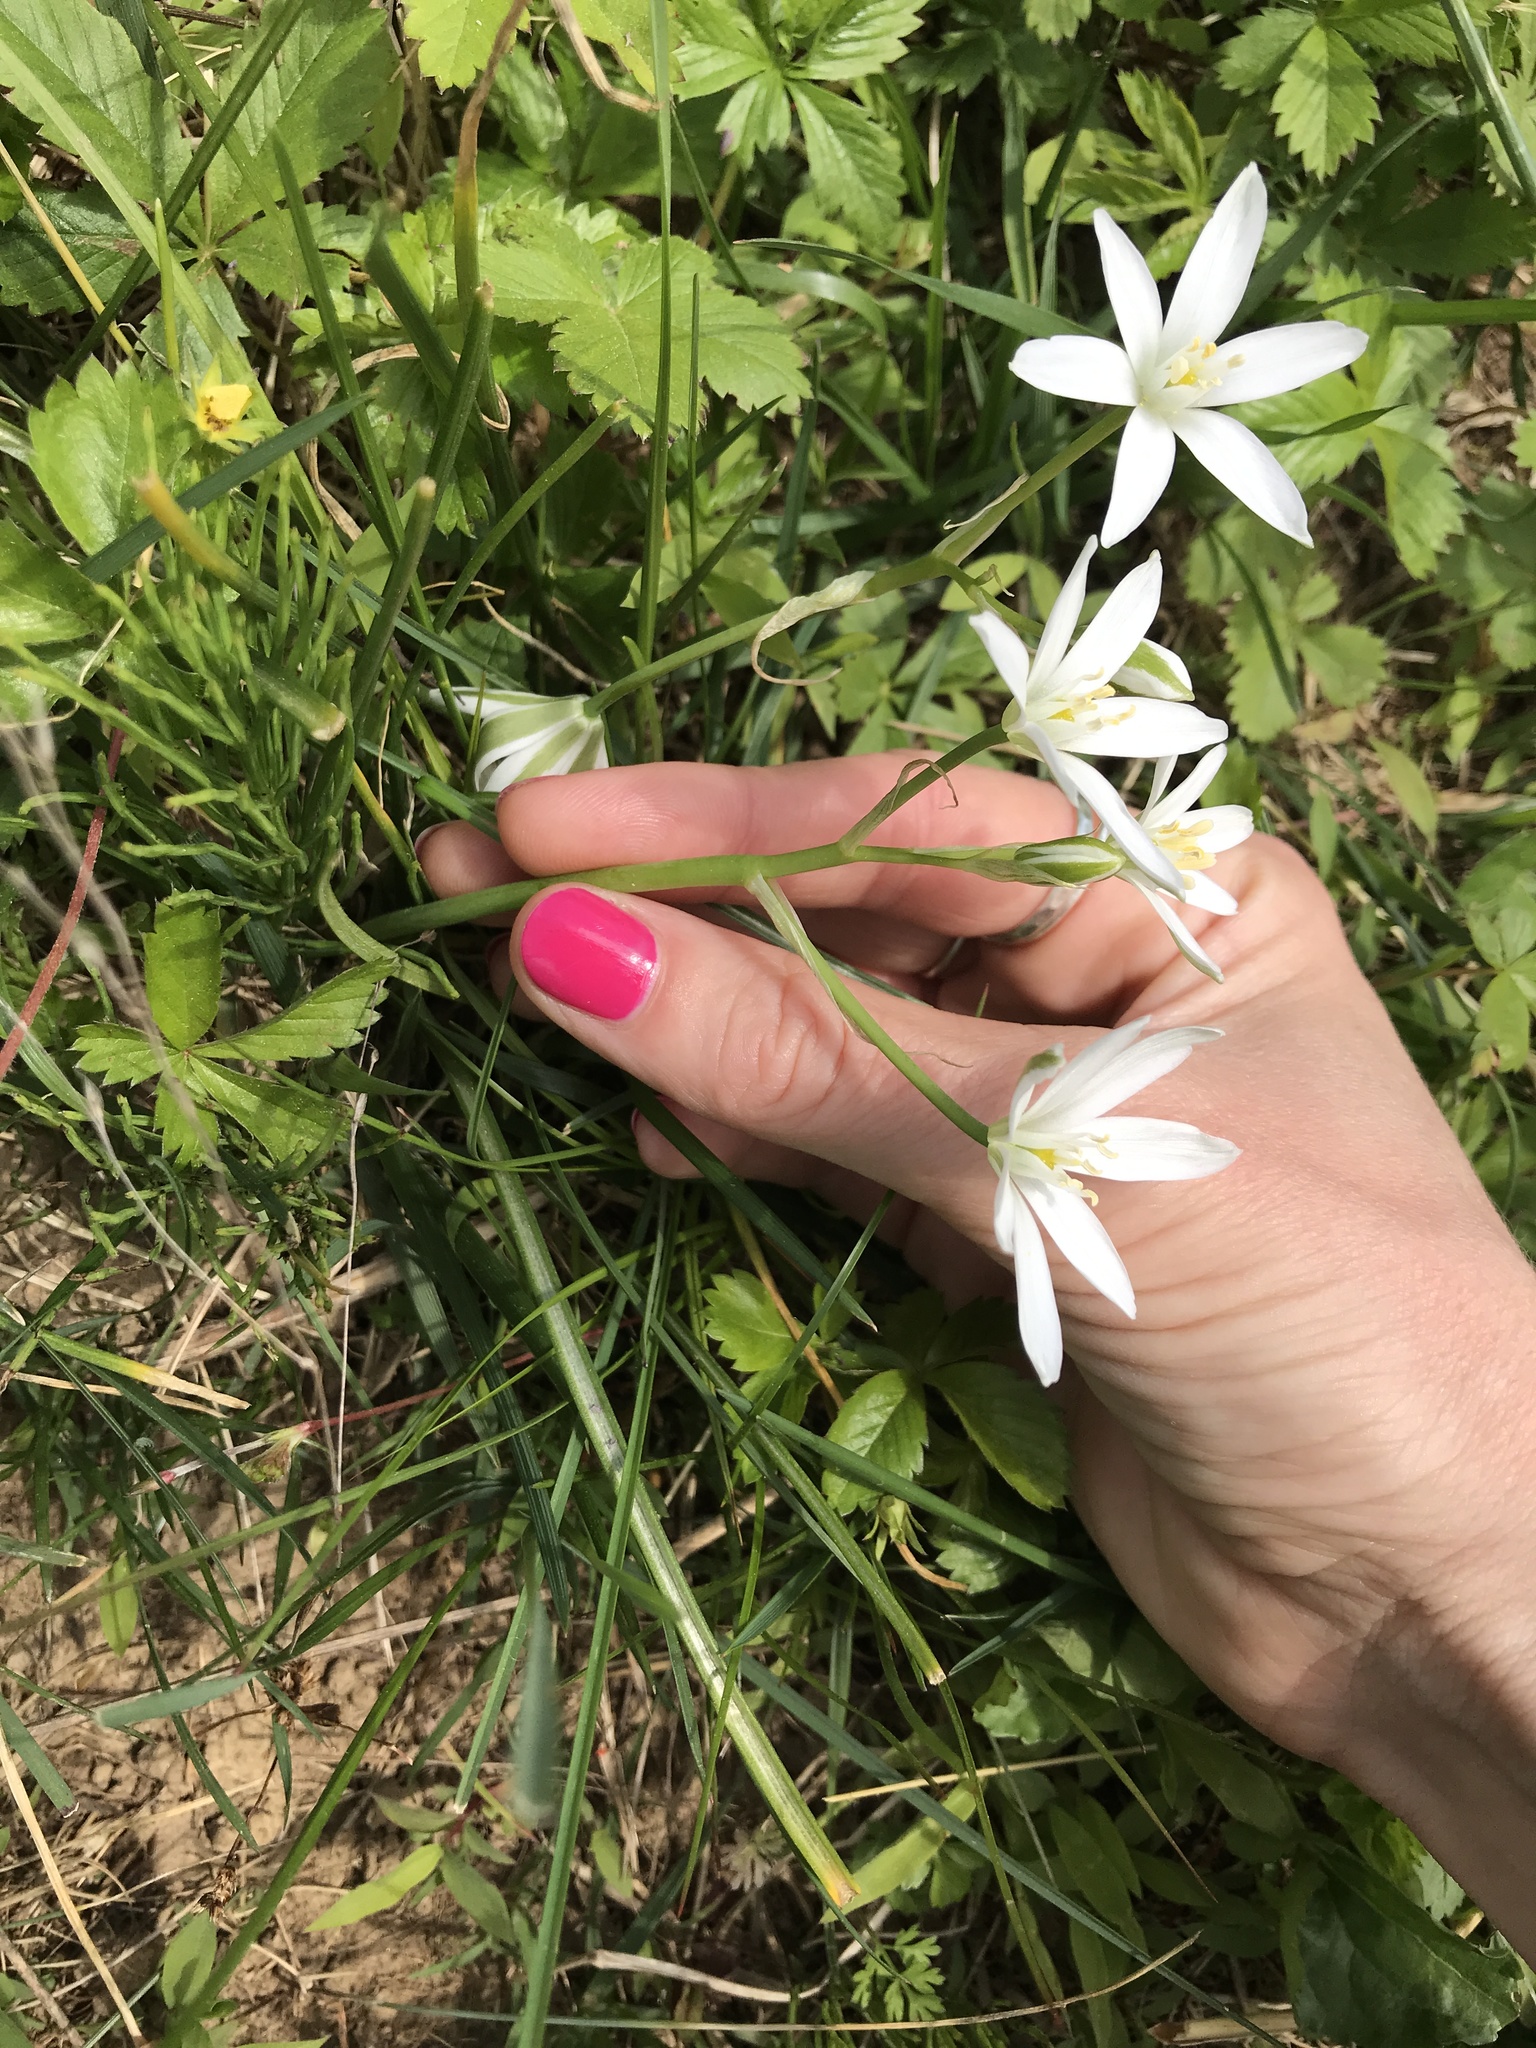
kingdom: Plantae
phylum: Tracheophyta
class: Liliopsida
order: Asparagales
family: Asparagaceae
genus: Ornithogalum
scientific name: Ornithogalum umbellatum
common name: Garden star-of-bethlehem
